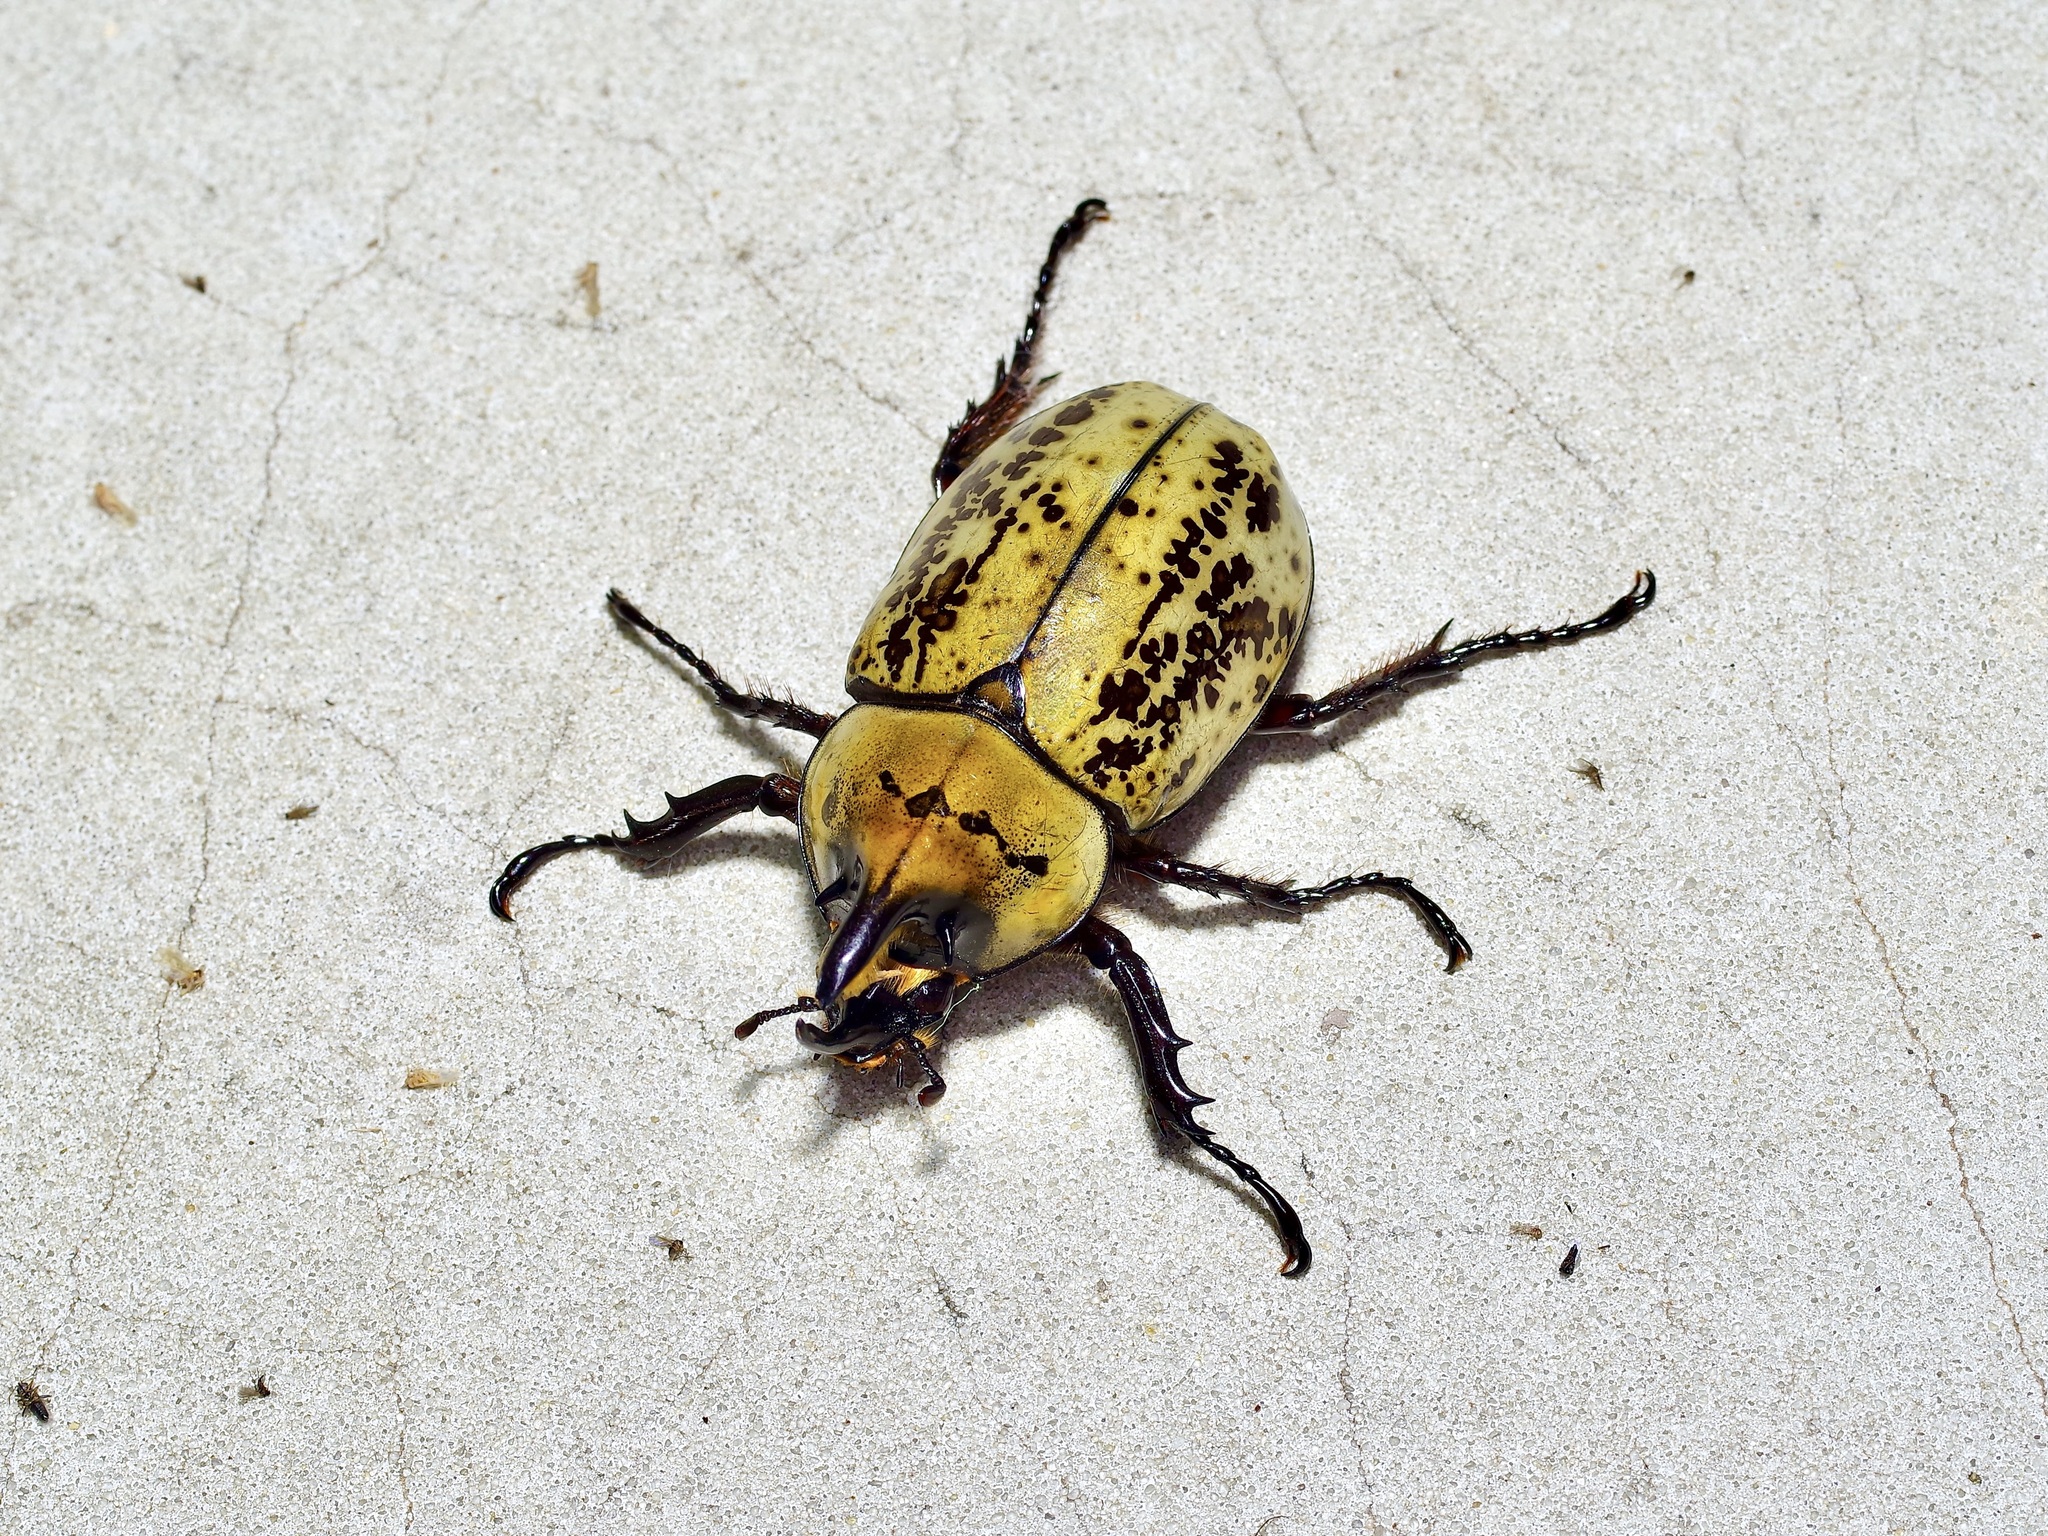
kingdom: Animalia
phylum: Arthropoda
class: Insecta
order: Coleoptera
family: Scarabaeidae
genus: Dynastes
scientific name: Dynastes tityus
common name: Eastern hercules beetle
